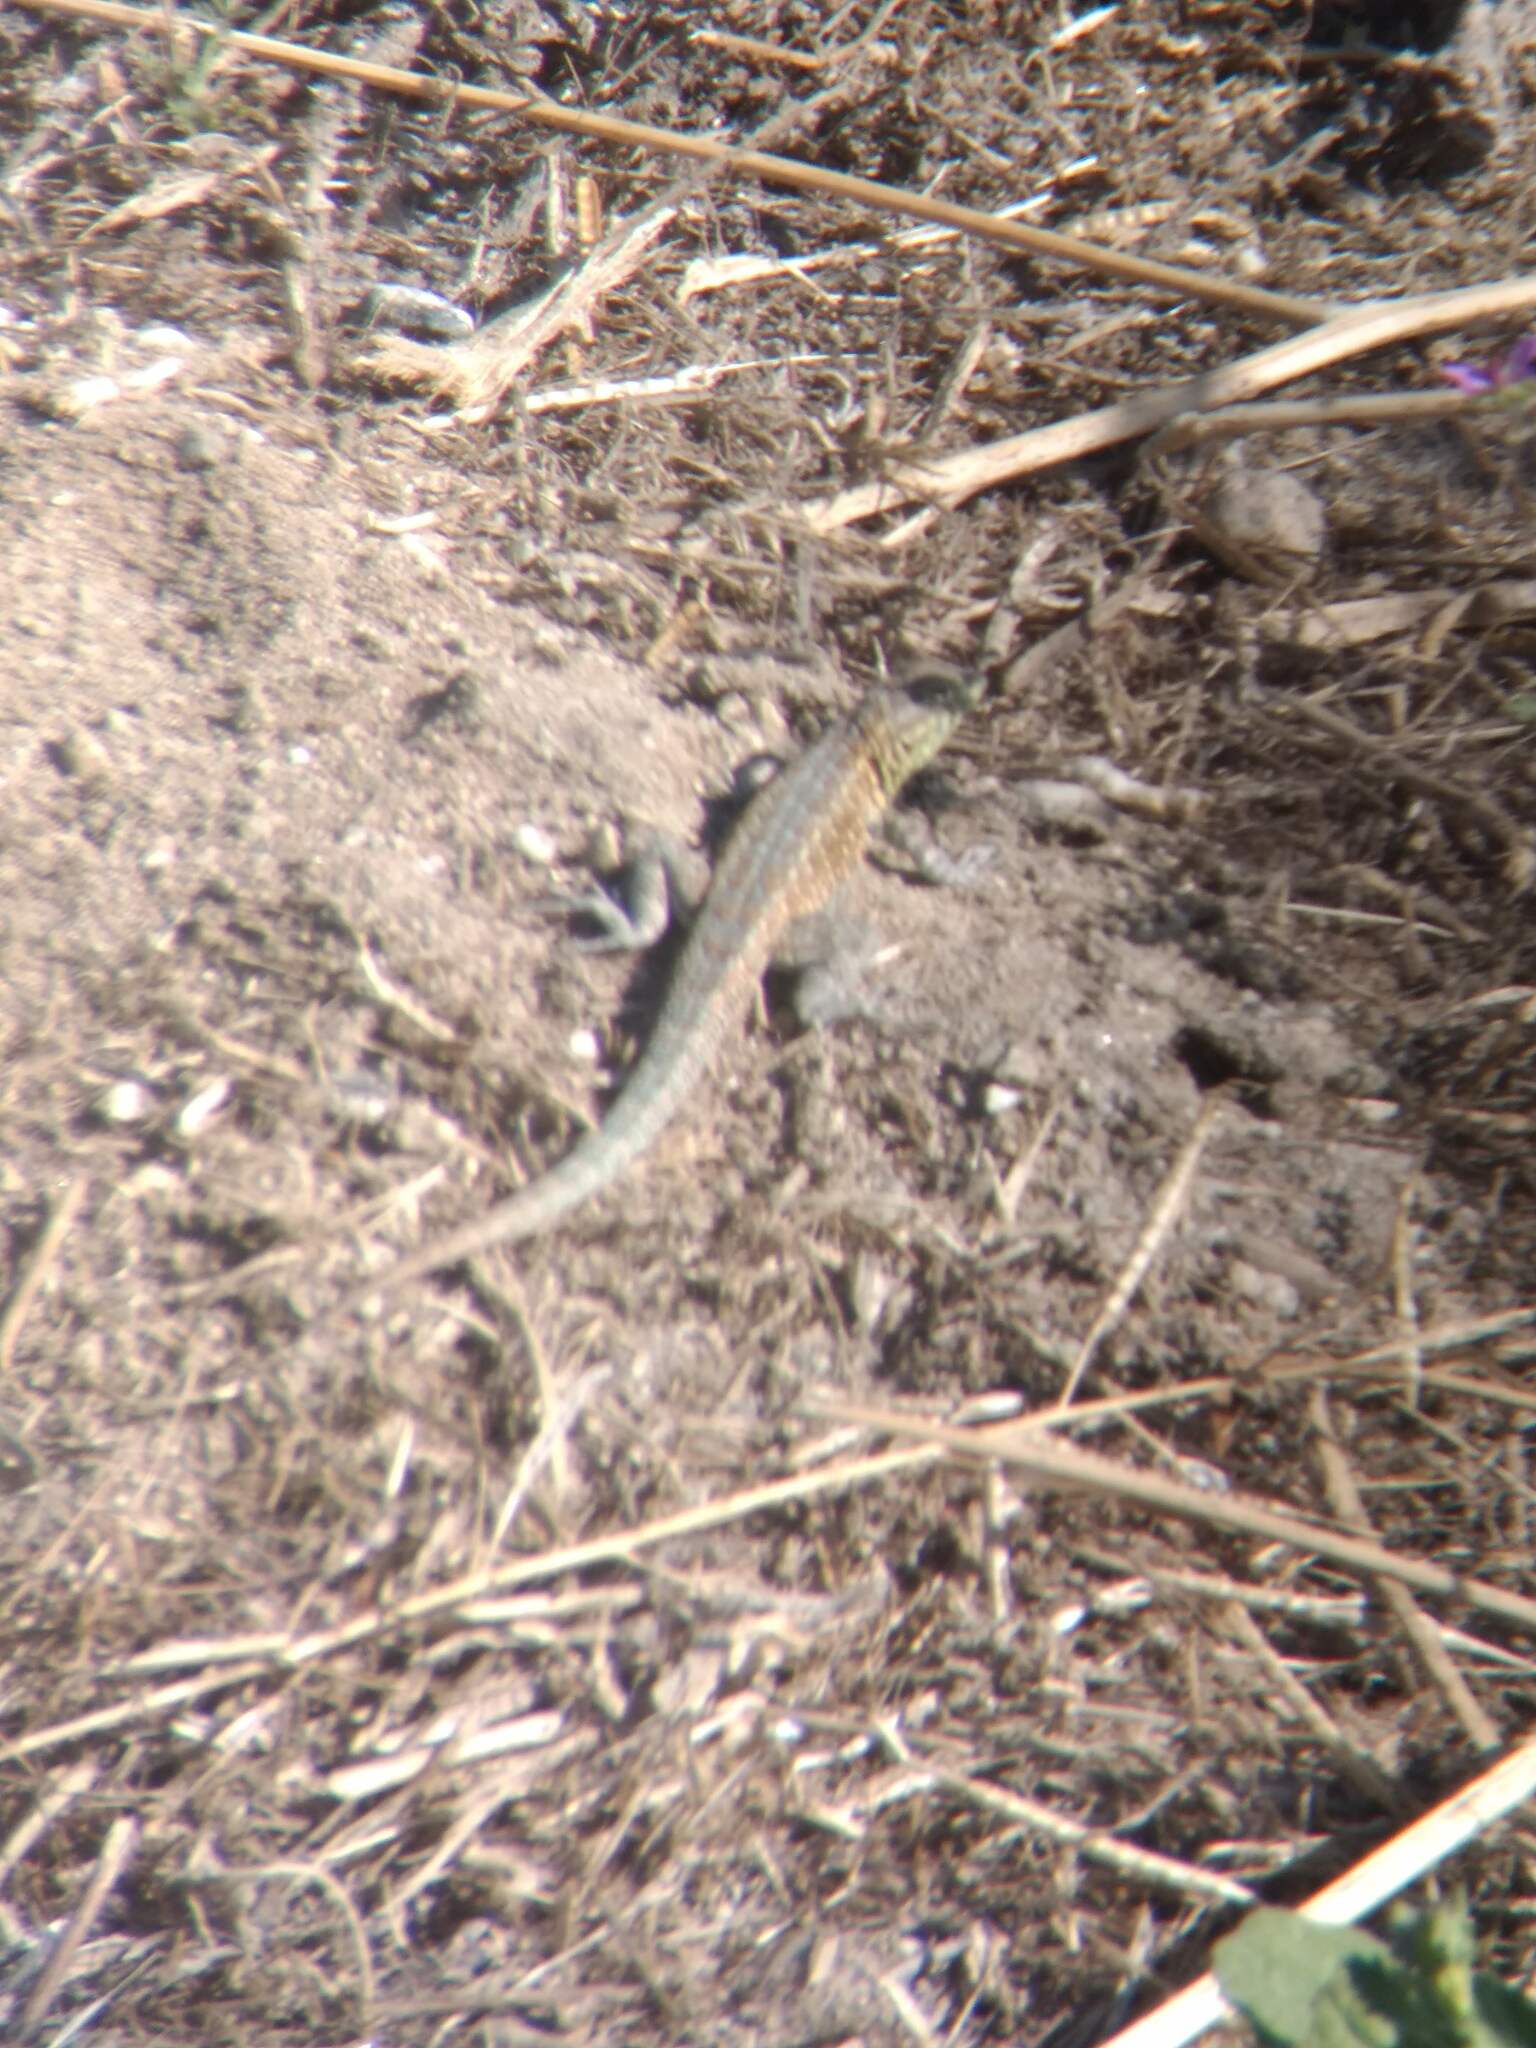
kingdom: Animalia
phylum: Chordata
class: Squamata
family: Phrynosomatidae
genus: Uta
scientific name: Uta stansburiana
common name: Side-blotched lizard
